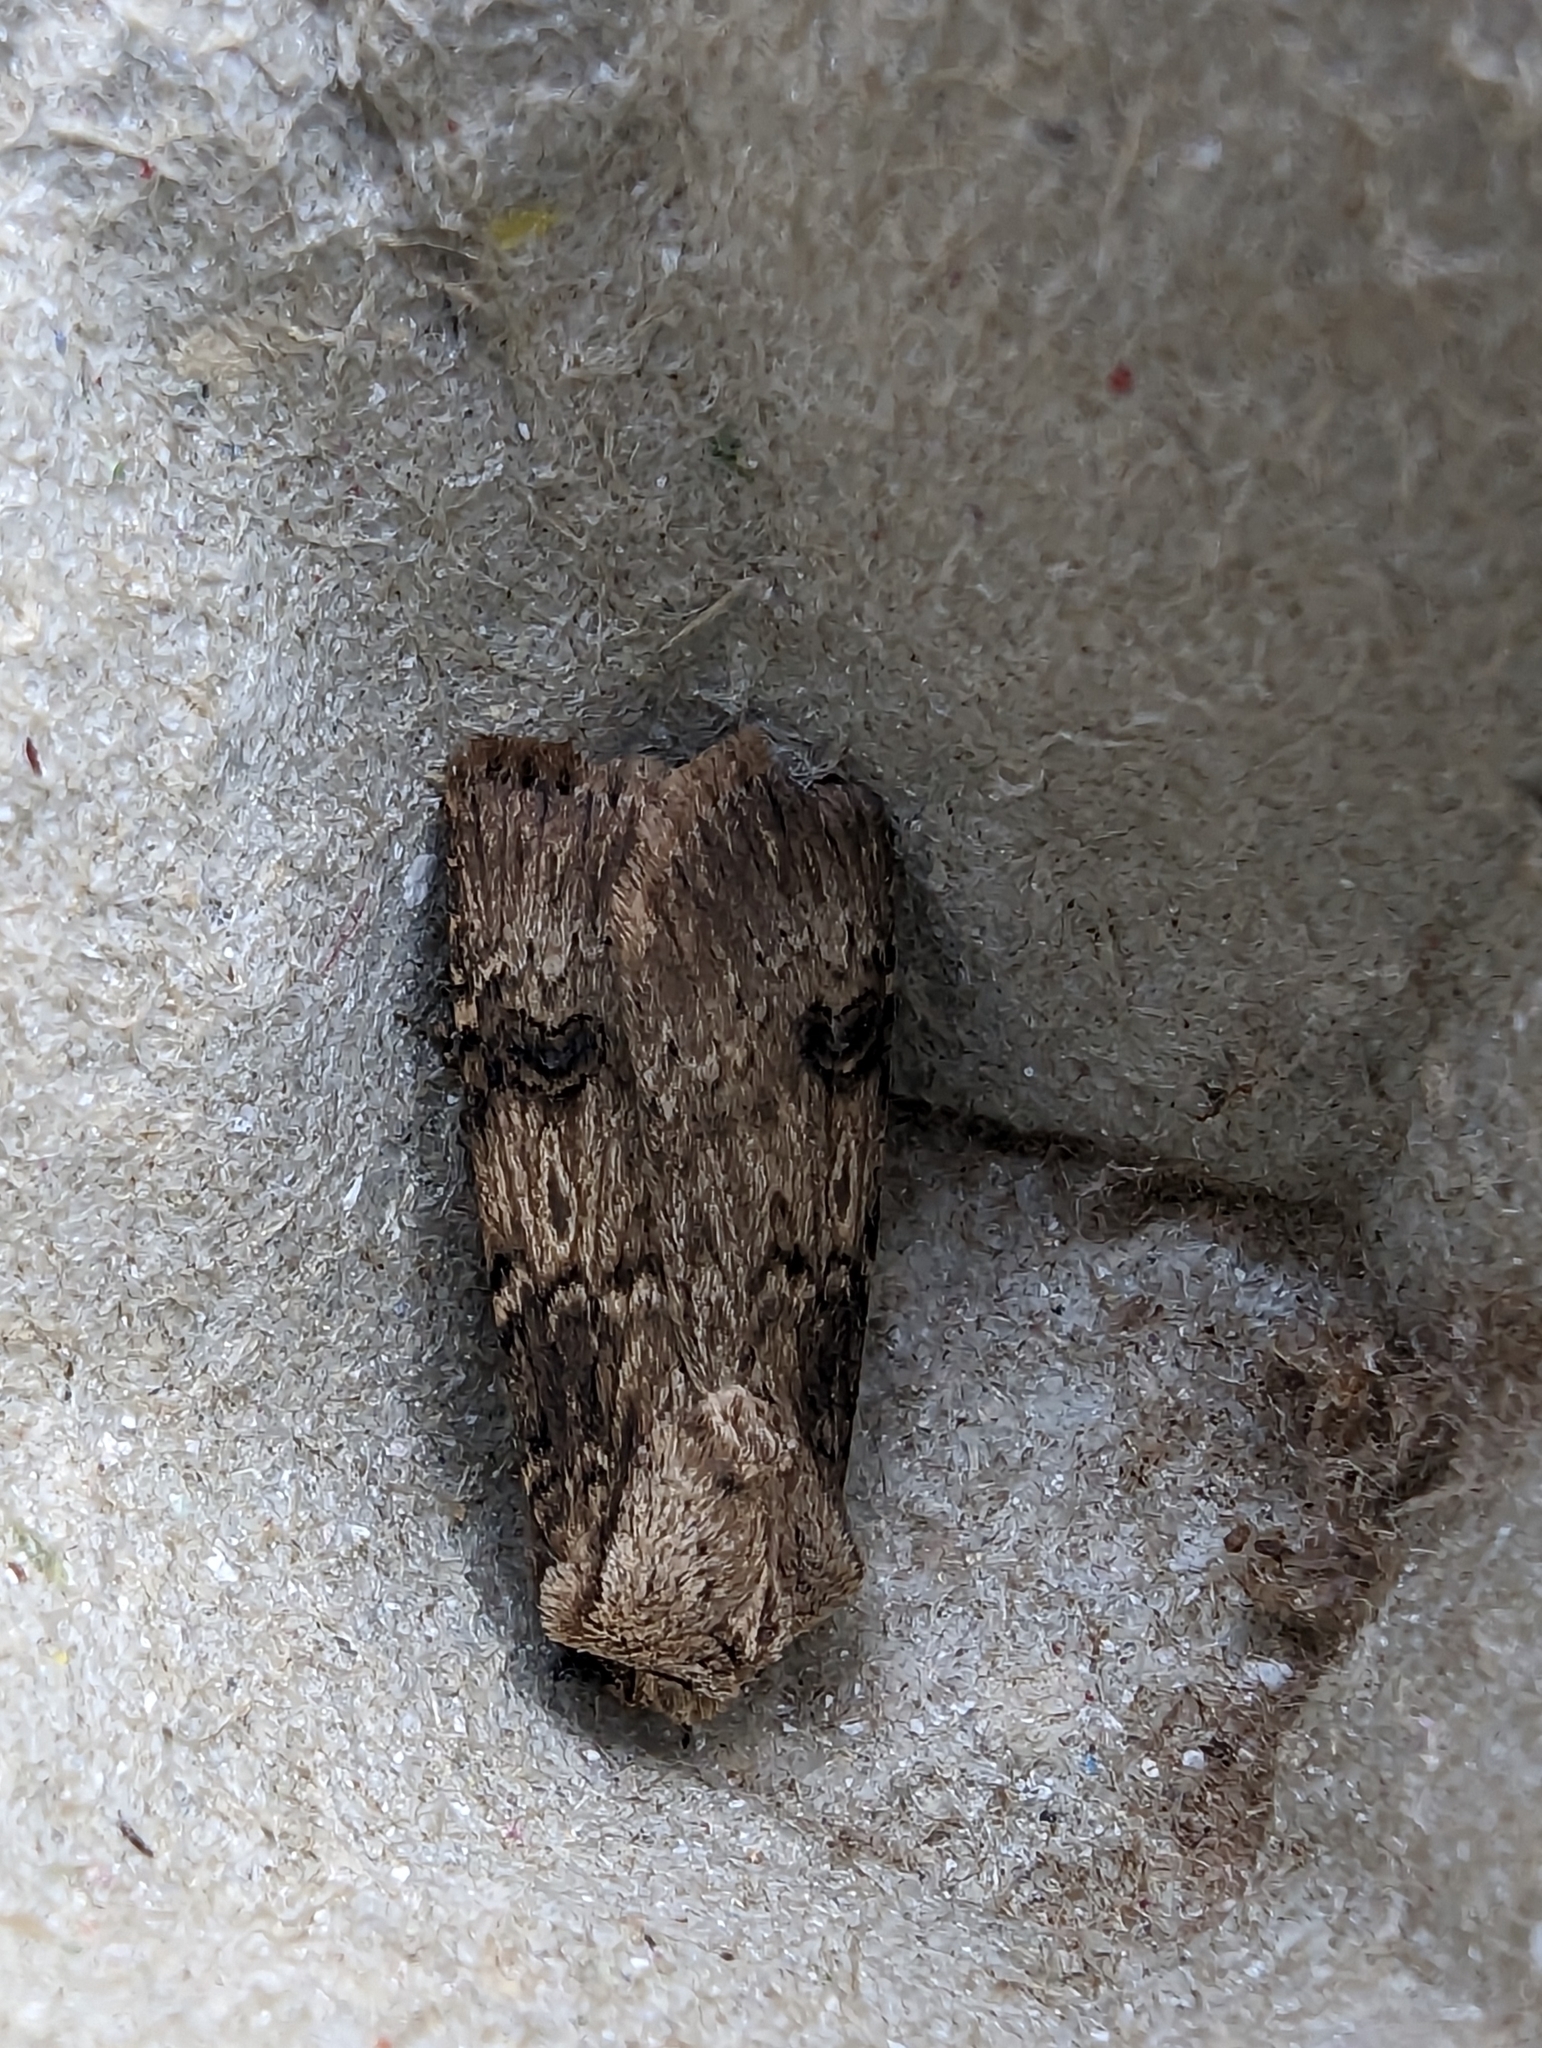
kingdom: Animalia
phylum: Arthropoda
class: Insecta
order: Lepidoptera
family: Noctuidae
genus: Agrotis
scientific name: Agrotis puta
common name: Shuttle-shaped dart
